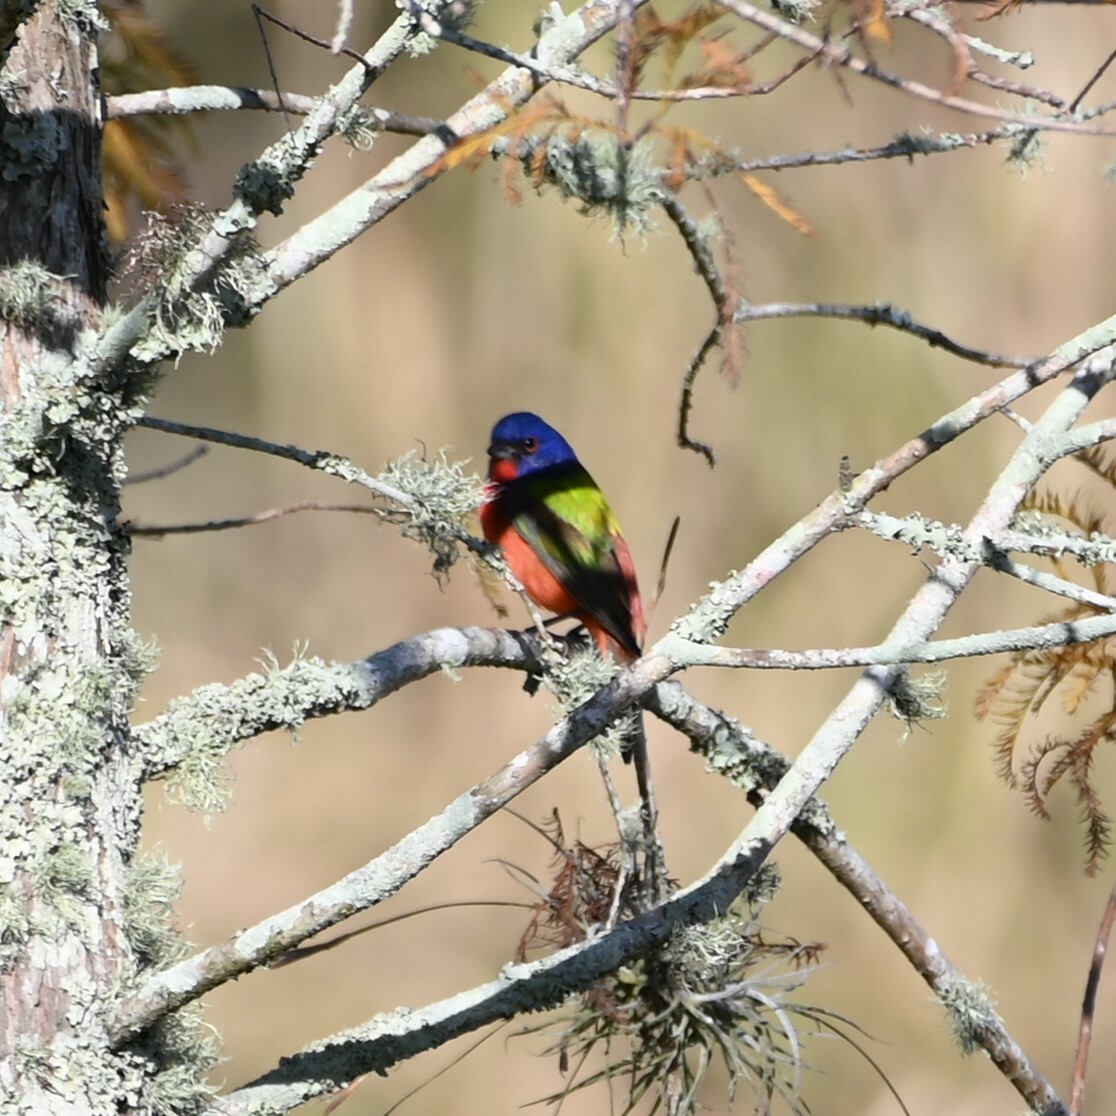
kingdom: Animalia
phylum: Chordata
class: Aves
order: Passeriformes
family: Cardinalidae
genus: Passerina
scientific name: Passerina ciris
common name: Painted bunting
